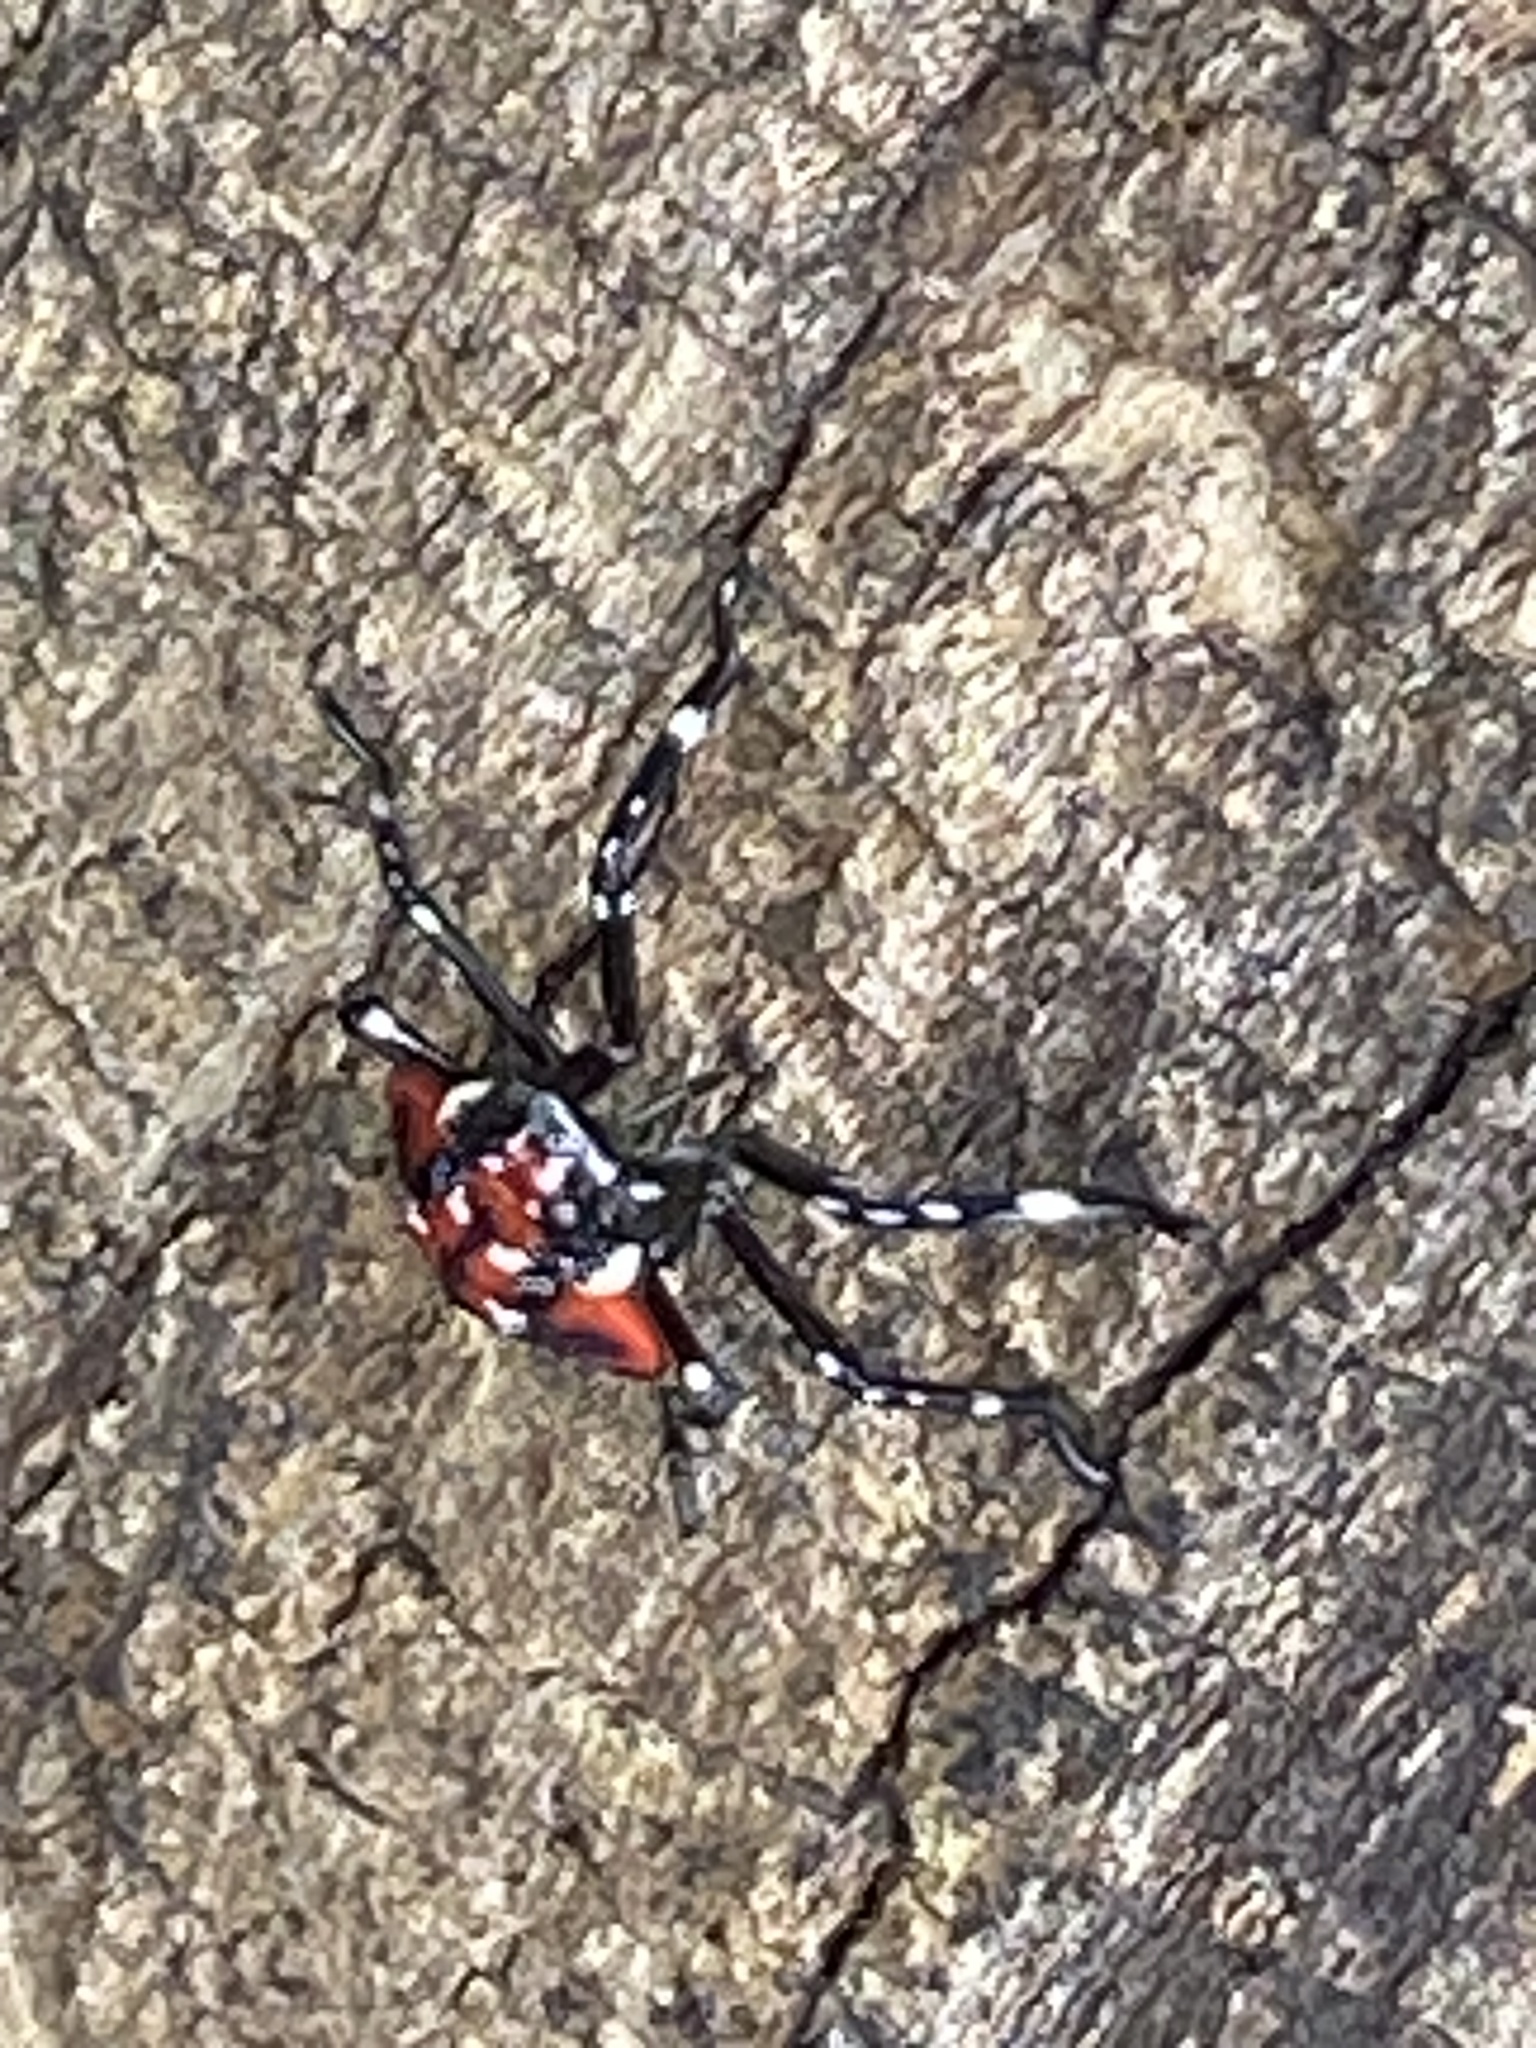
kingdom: Animalia
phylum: Arthropoda
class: Insecta
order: Hemiptera
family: Fulgoridae
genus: Lycorma
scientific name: Lycorma delicatula
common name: Spotted lanternfly
